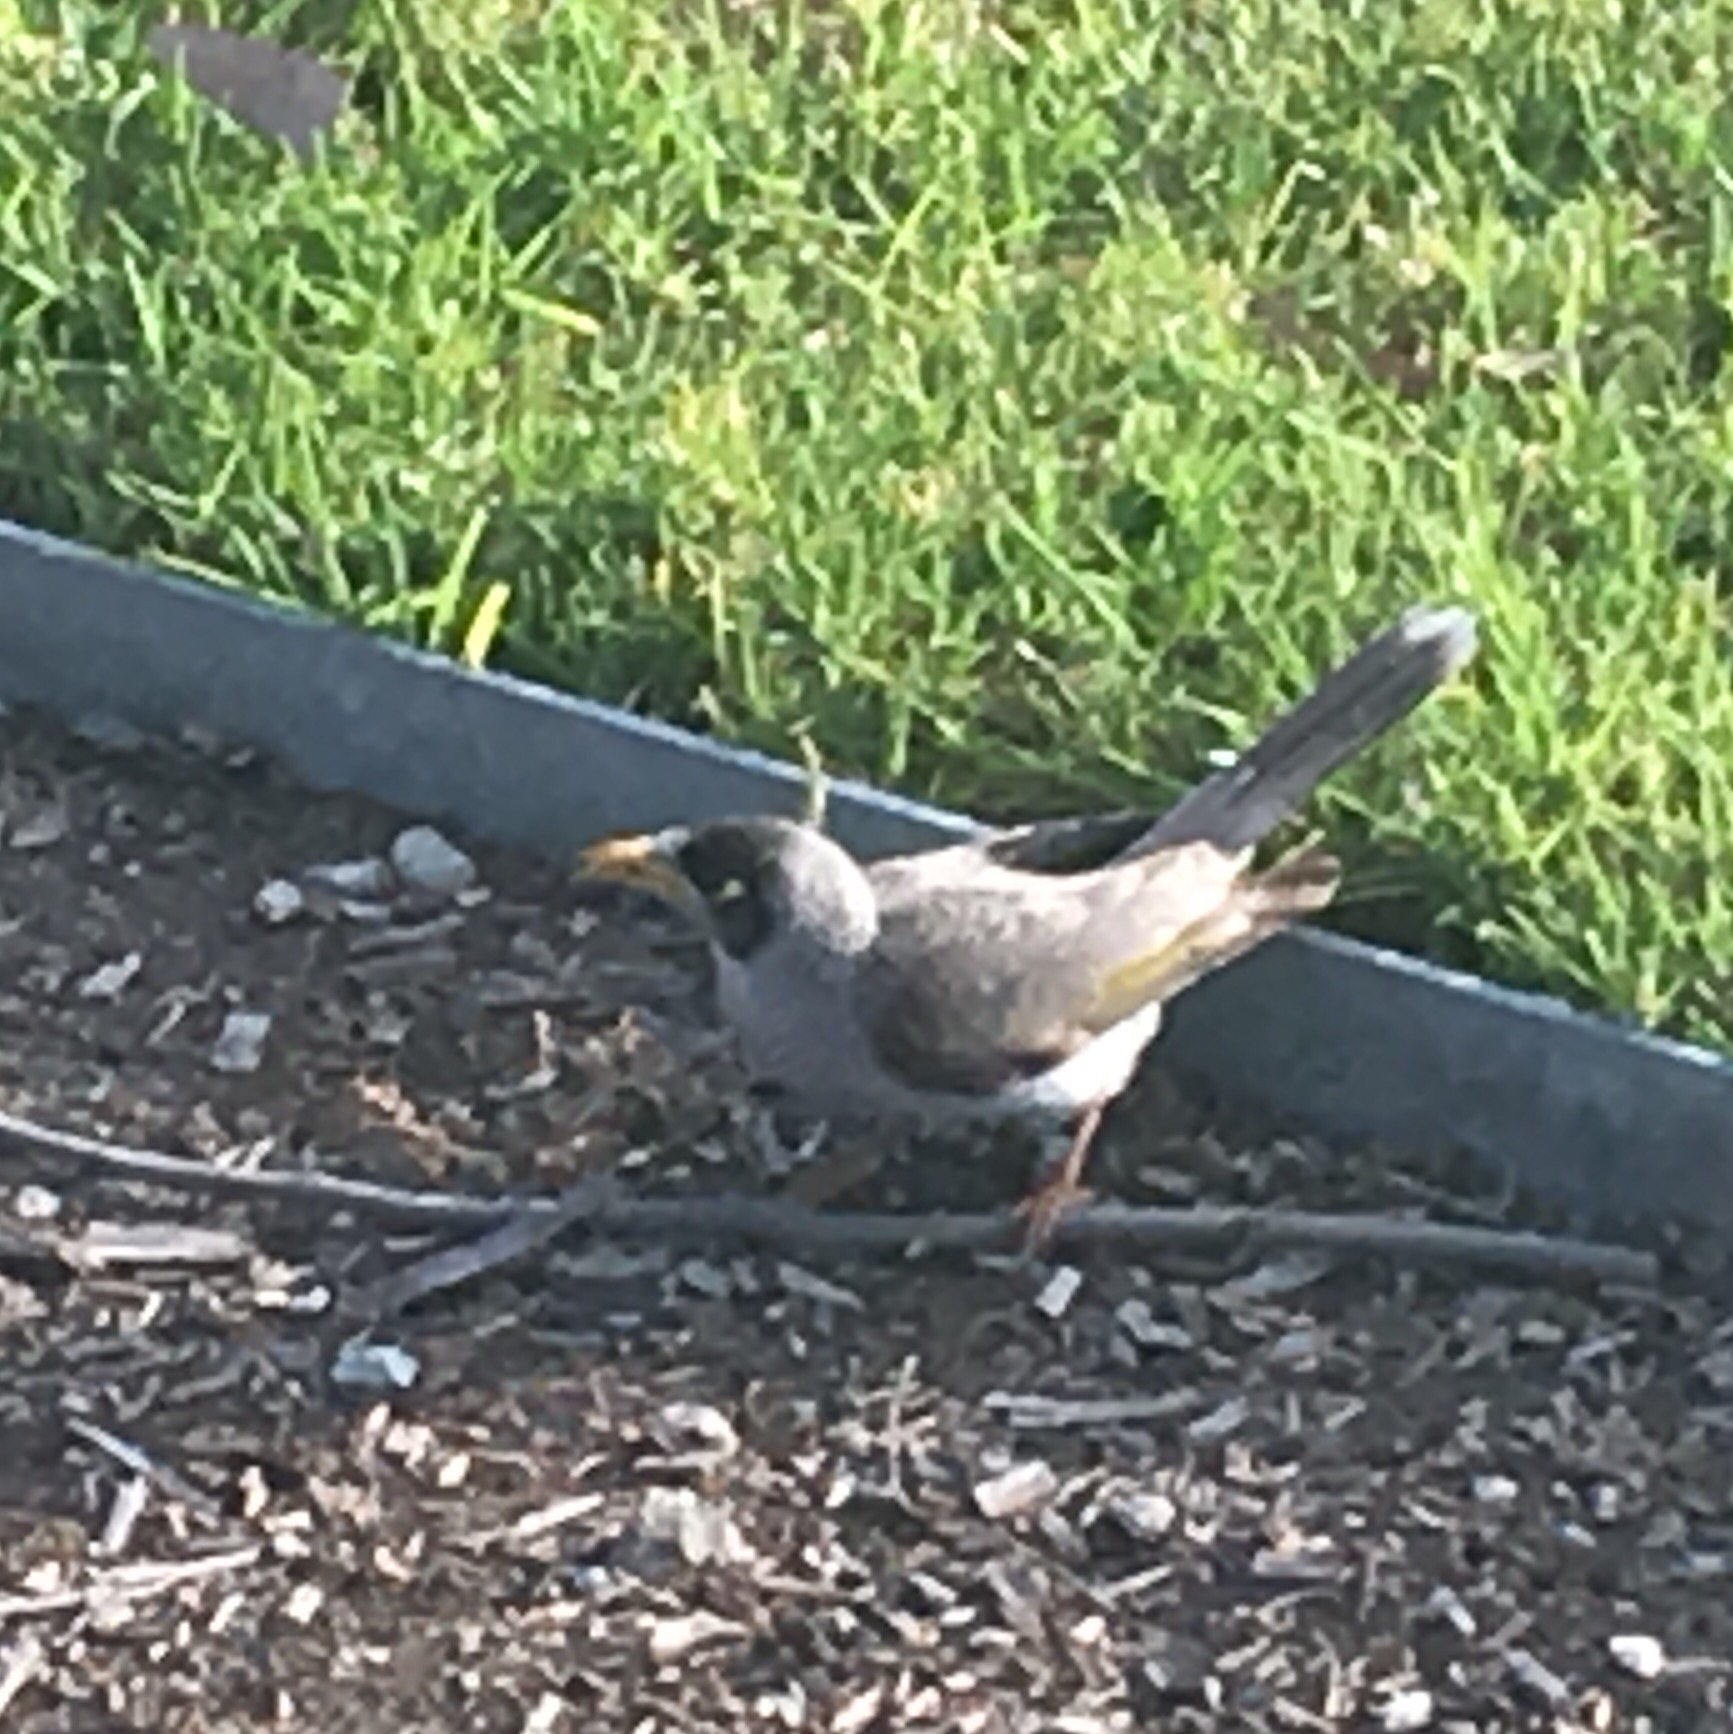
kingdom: Animalia
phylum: Chordata
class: Aves
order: Passeriformes
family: Meliphagidae
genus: Manorina
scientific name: Manorina melanocephala
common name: Noisy miner
